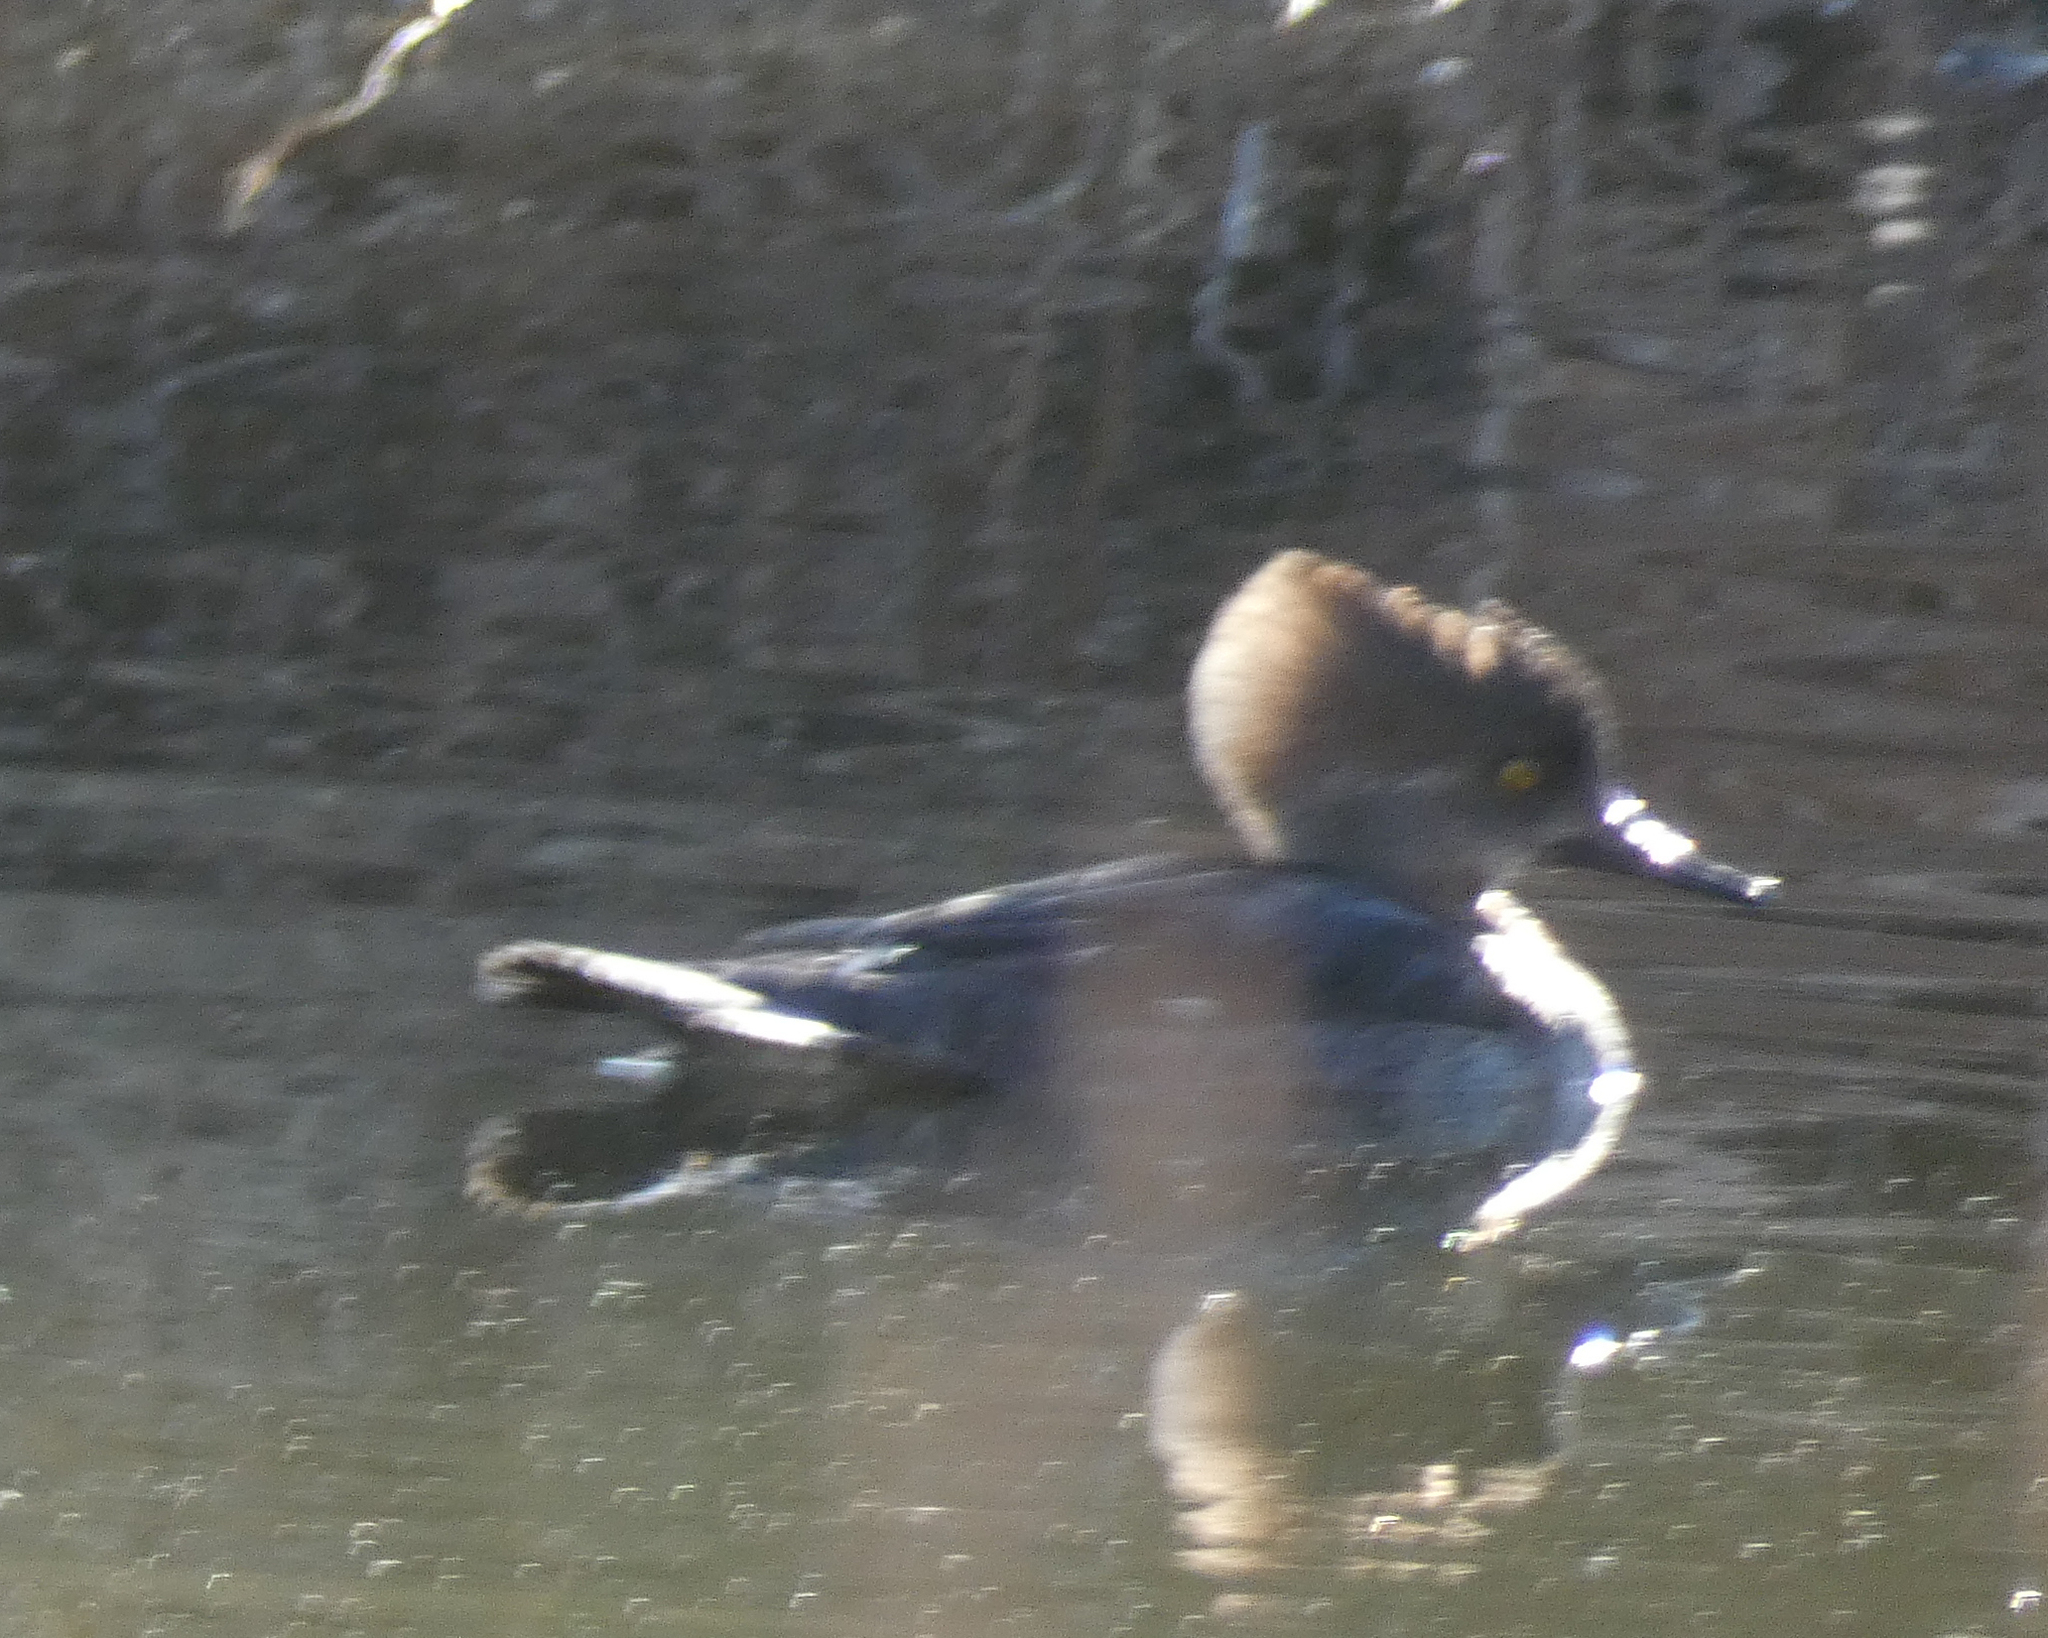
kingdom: Animalia
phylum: Chordata
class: Aves
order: Anseriformes
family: Anatidae
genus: Lophodytes
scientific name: Lophodytes cucullatus
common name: Hooded merganser
